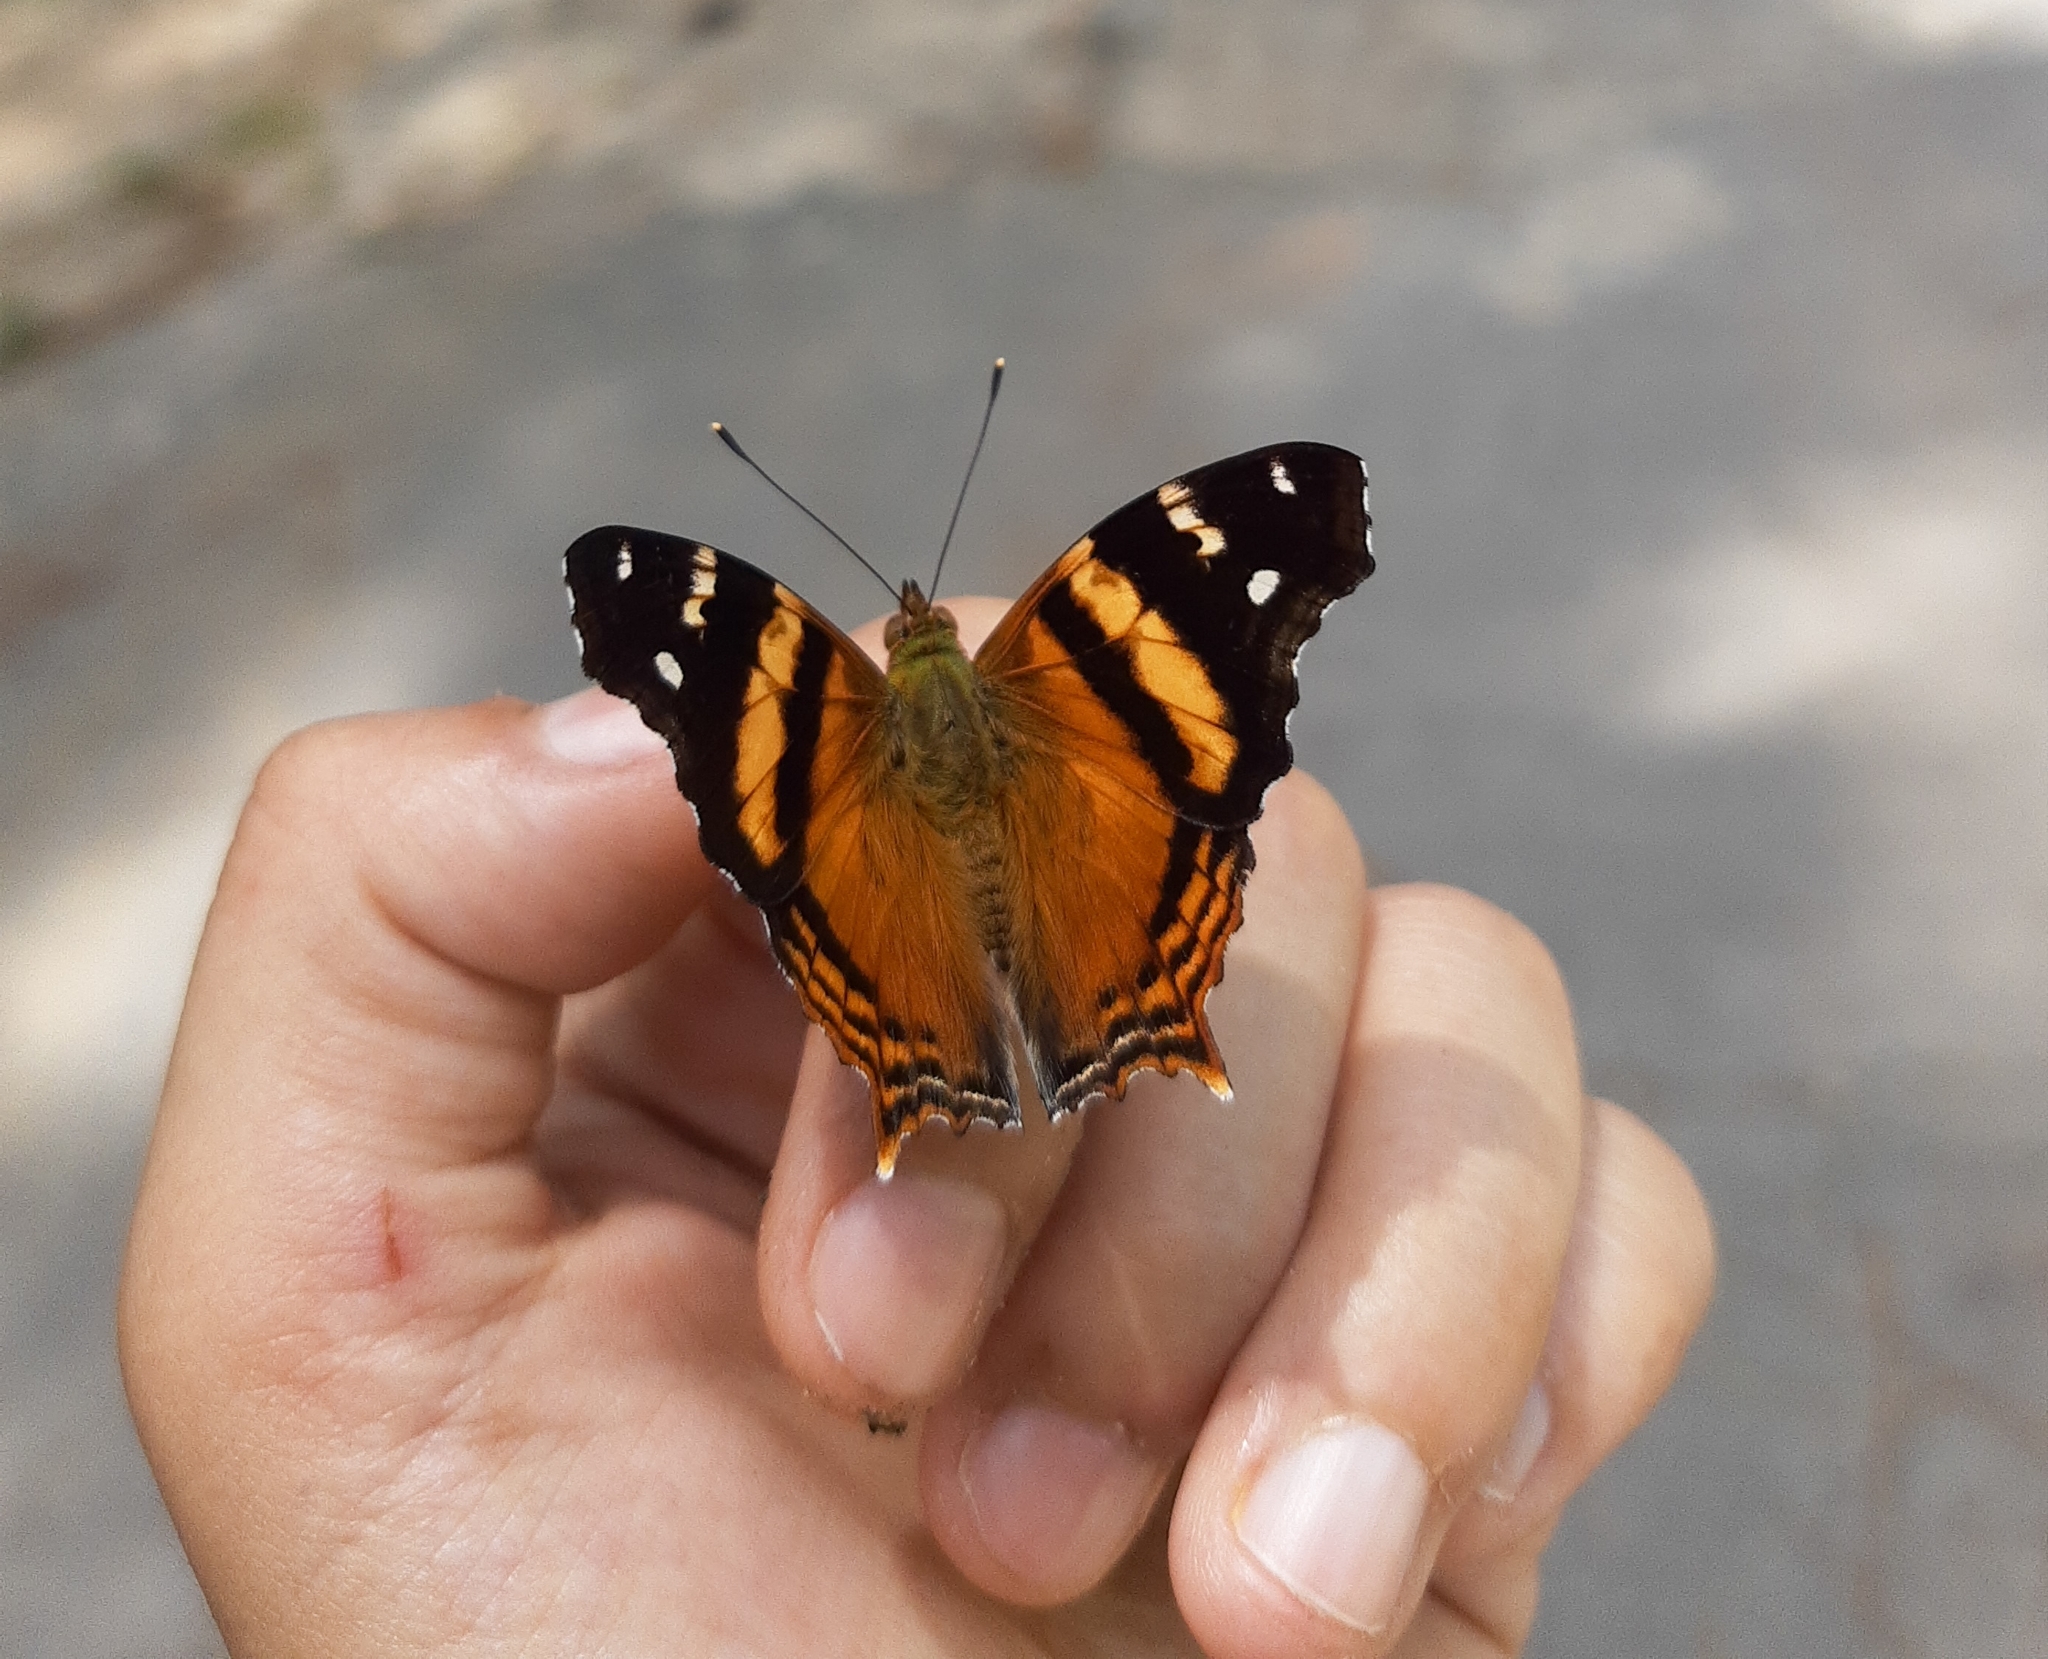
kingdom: Animalia
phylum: Arthropoda
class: Insecta
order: Lepidoptera
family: Nymphalidae
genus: Hypanartia
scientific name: Hypanartia bella
